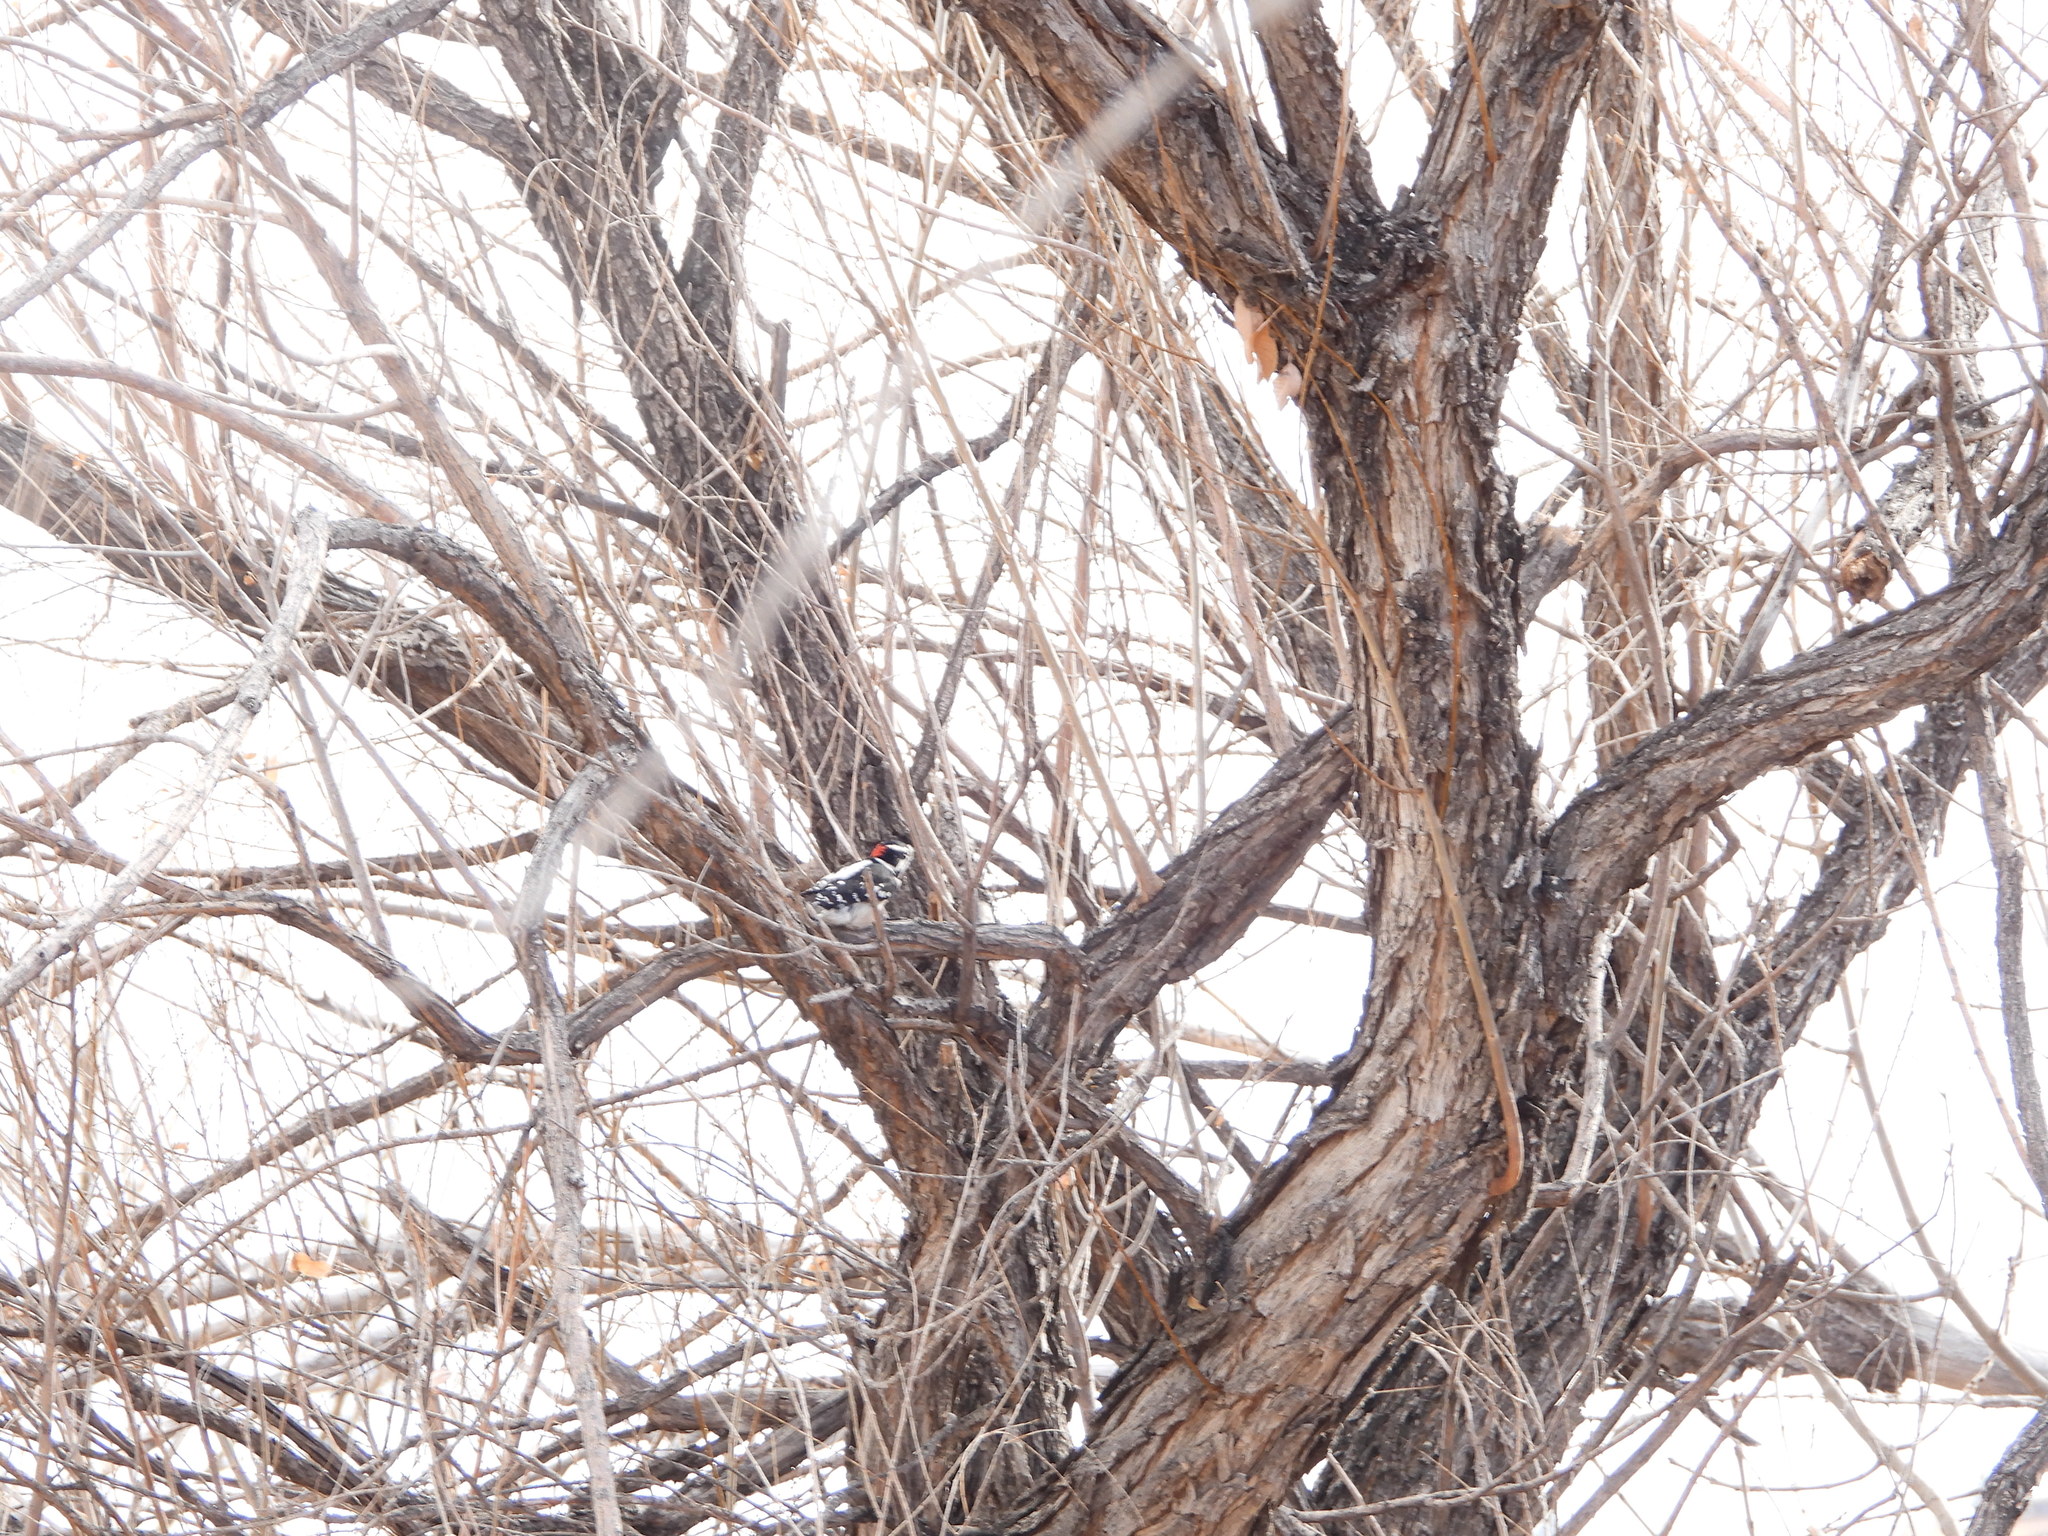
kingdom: Animalia
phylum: Chordata
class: Aves
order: Piciformes
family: Picidae
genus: Dryobates
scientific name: Dryobates pubescens
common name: Downy woodpecker
